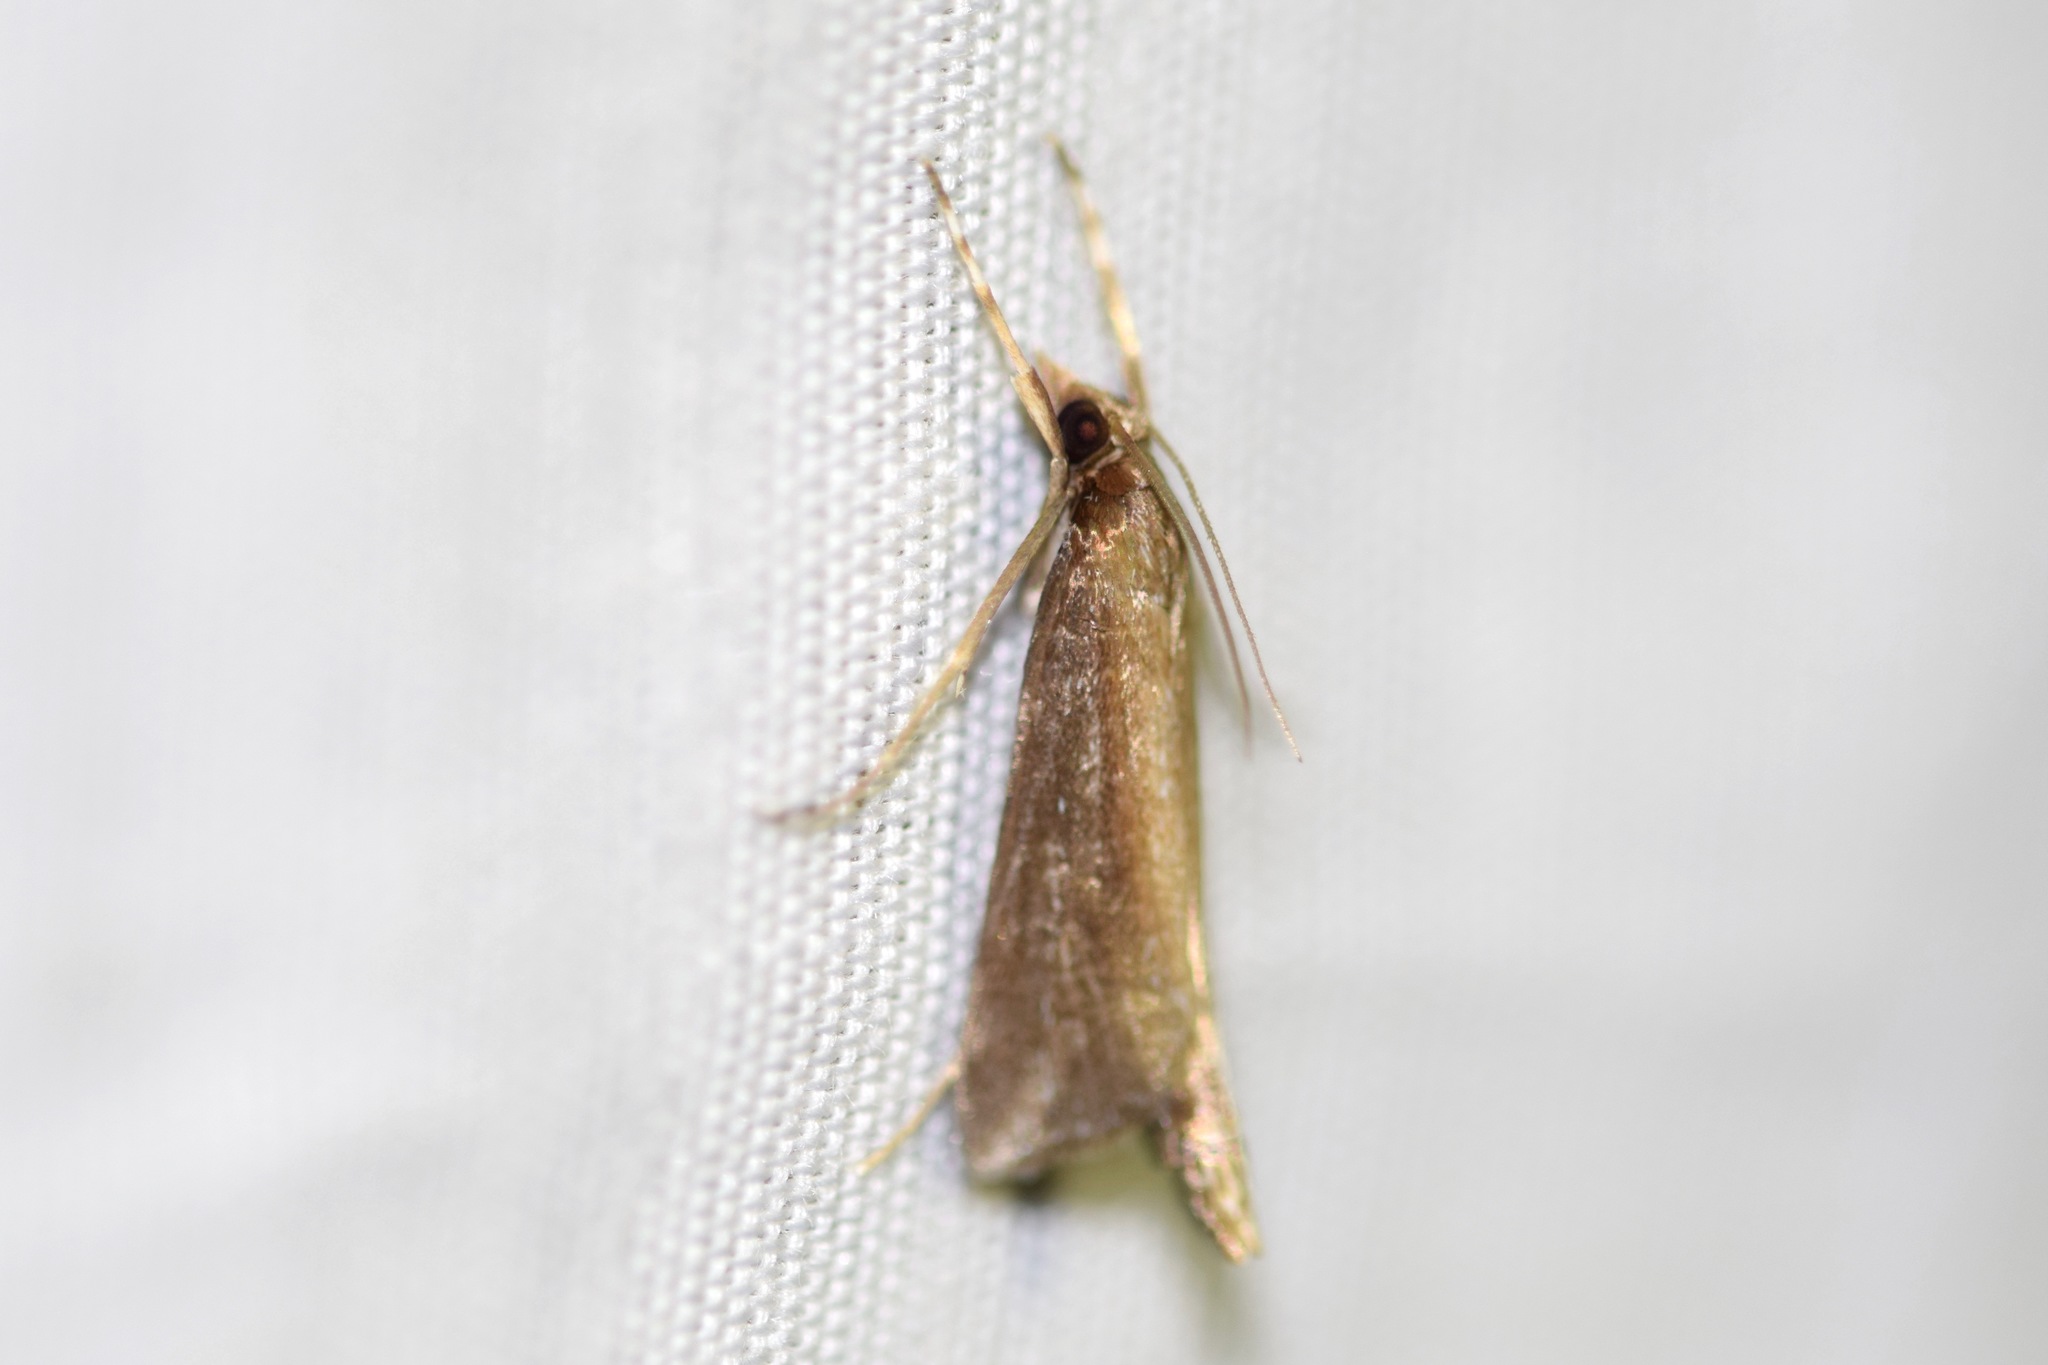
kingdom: Animalia
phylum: Arthropoda
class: Insecta
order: Lepidoptera
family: Crambidae
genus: Carectocultus
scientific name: Carectocultus perstrialis
